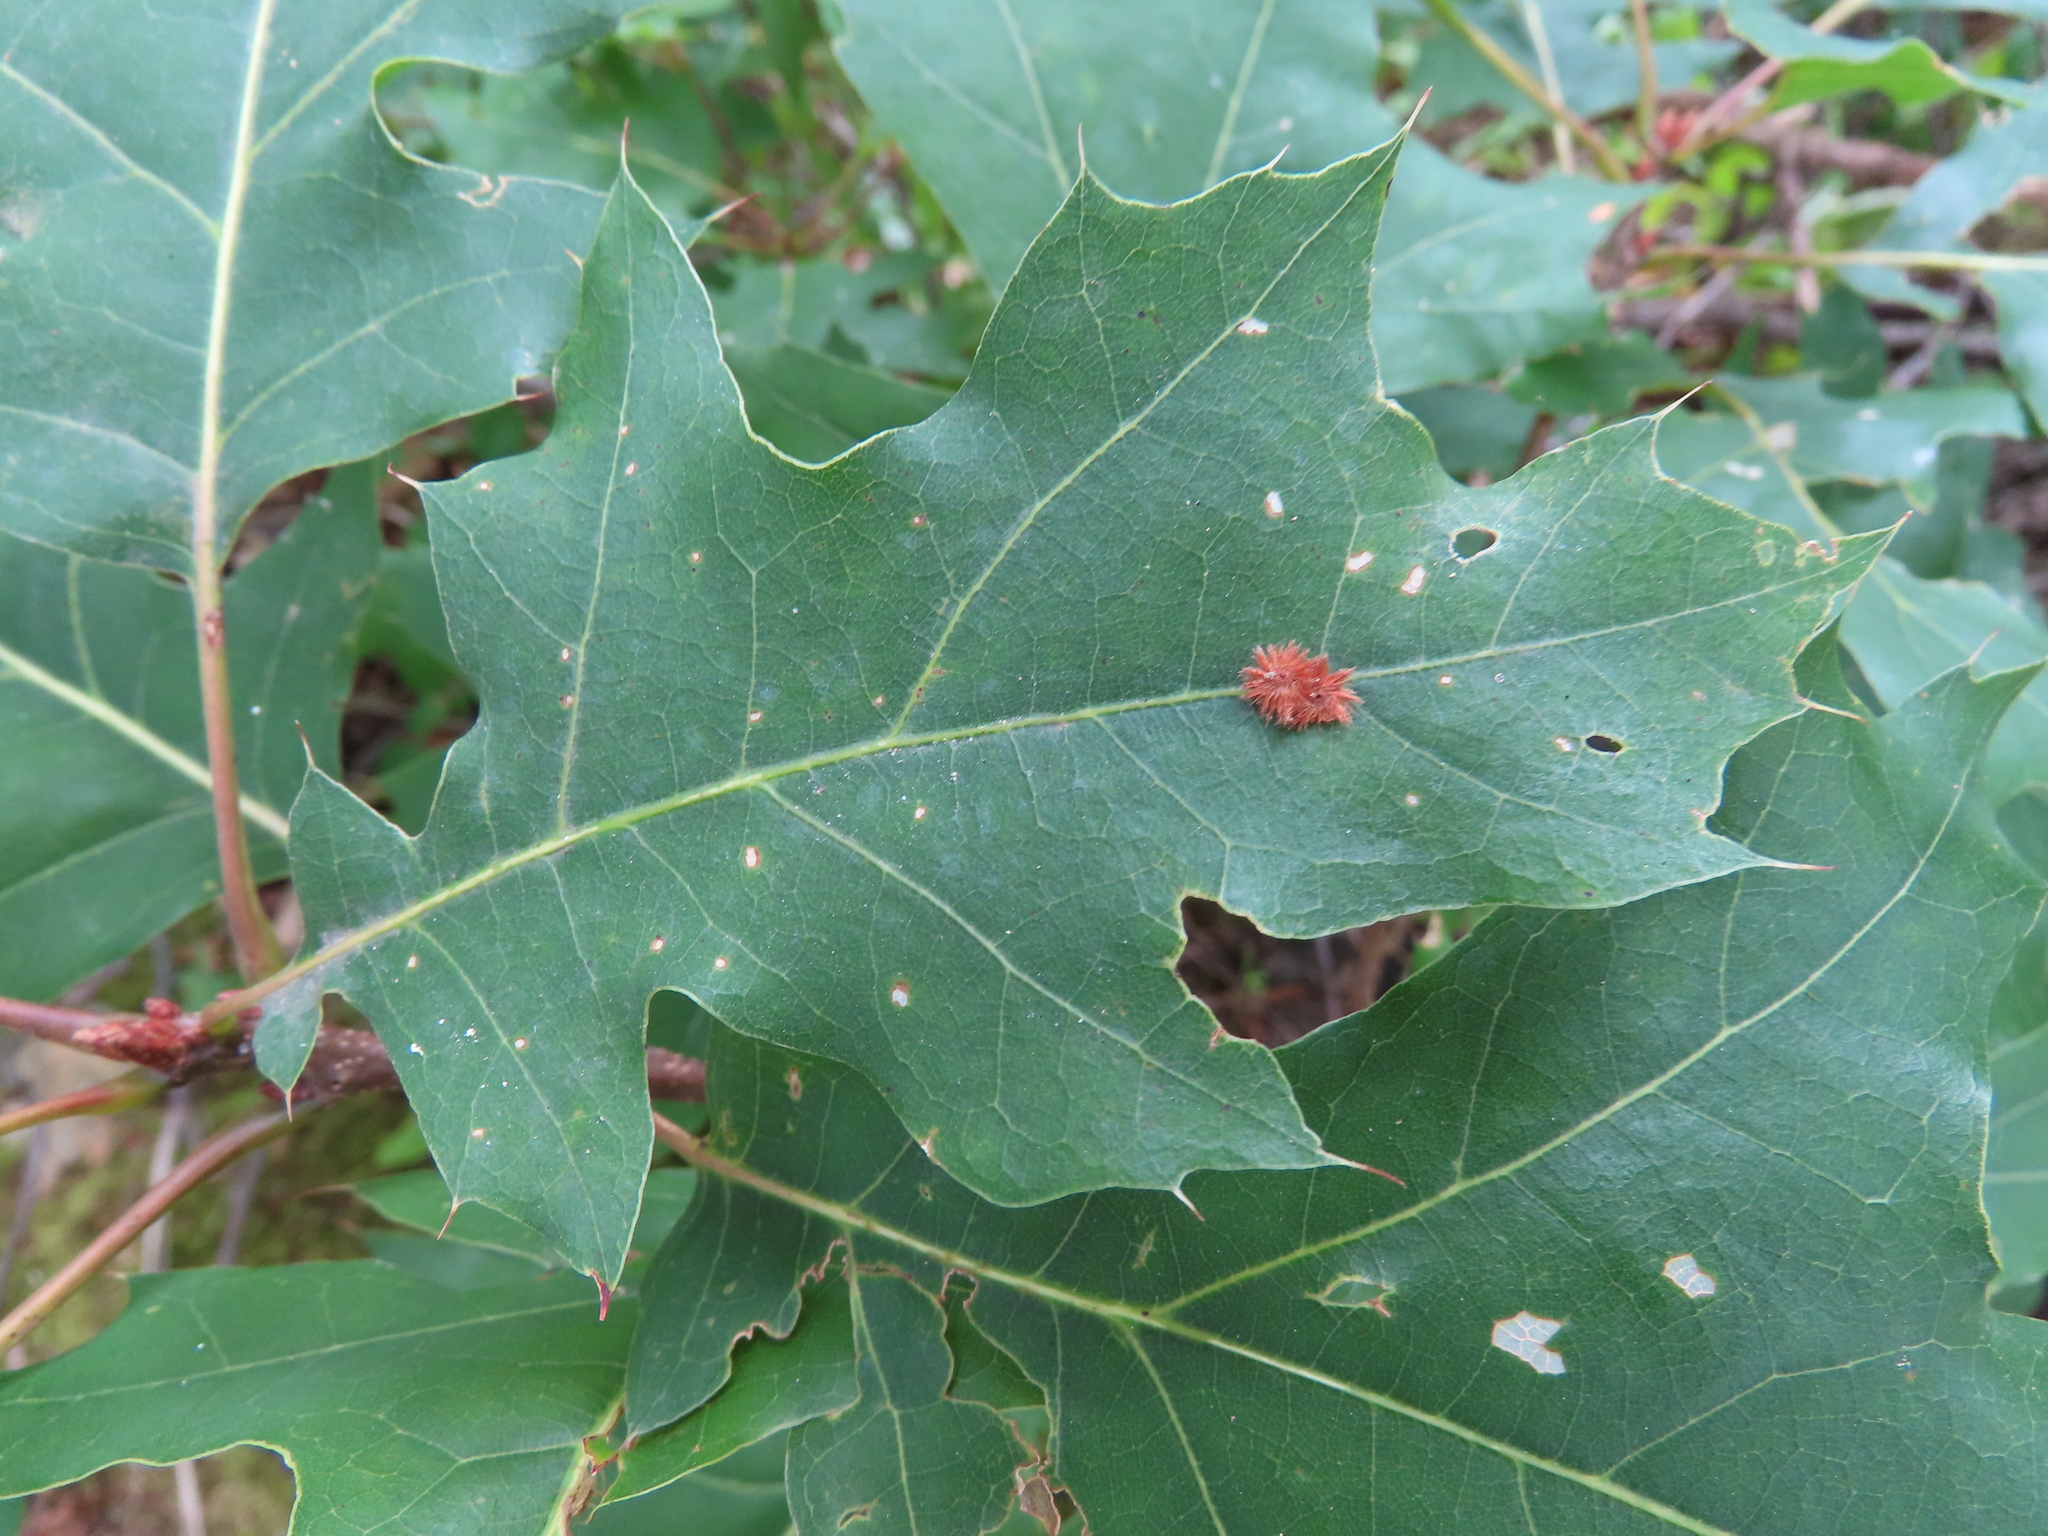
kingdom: Animalia
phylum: Arthropoda
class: Insecta
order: Hymenoptera
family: Cynipidae
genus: Callirhytis
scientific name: Callirhytis
